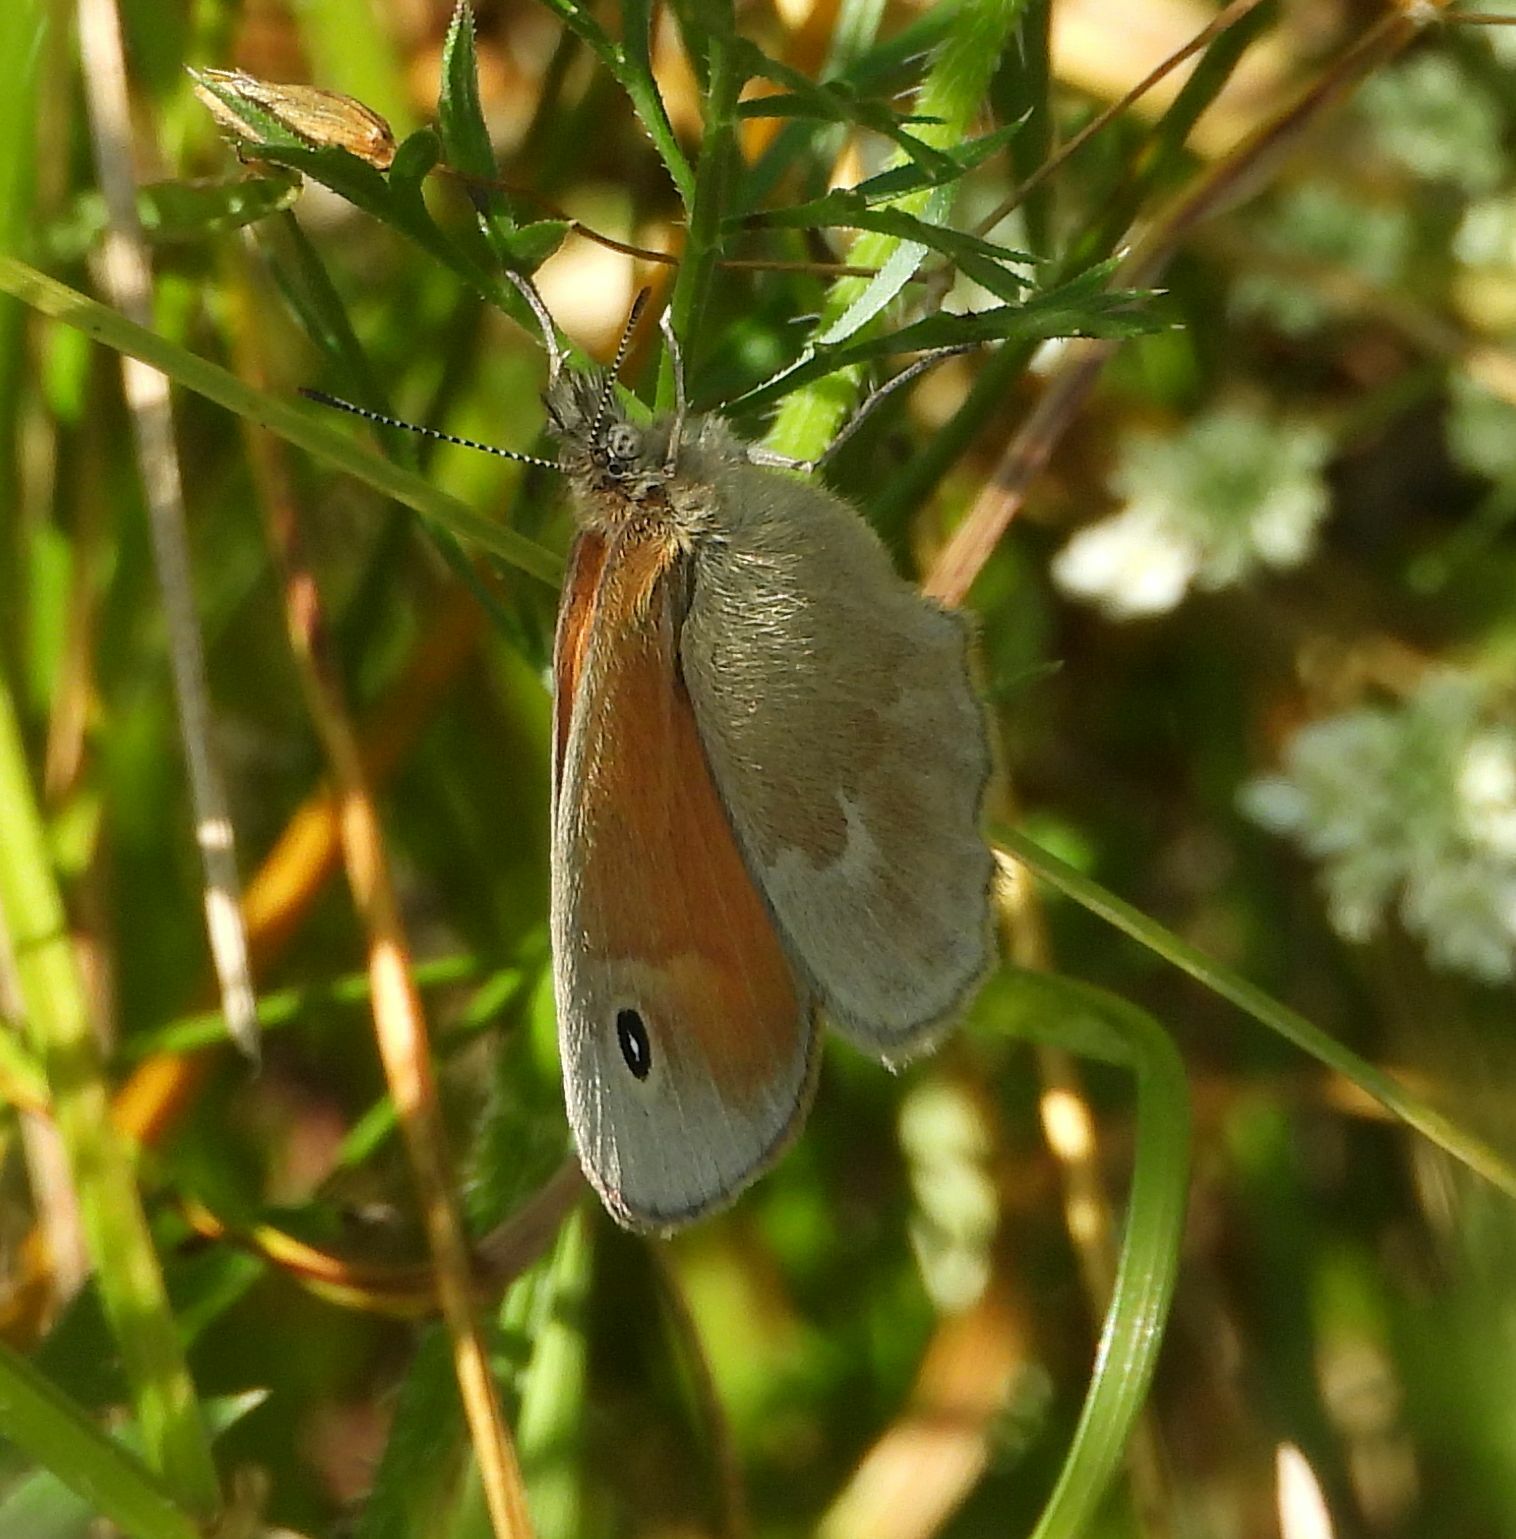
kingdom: Animalia
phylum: Arthropoda
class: Insecta
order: Lepidoptera
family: Nymphalidae
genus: Coenonympha
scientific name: Coenonympha california
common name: Common ringlet
